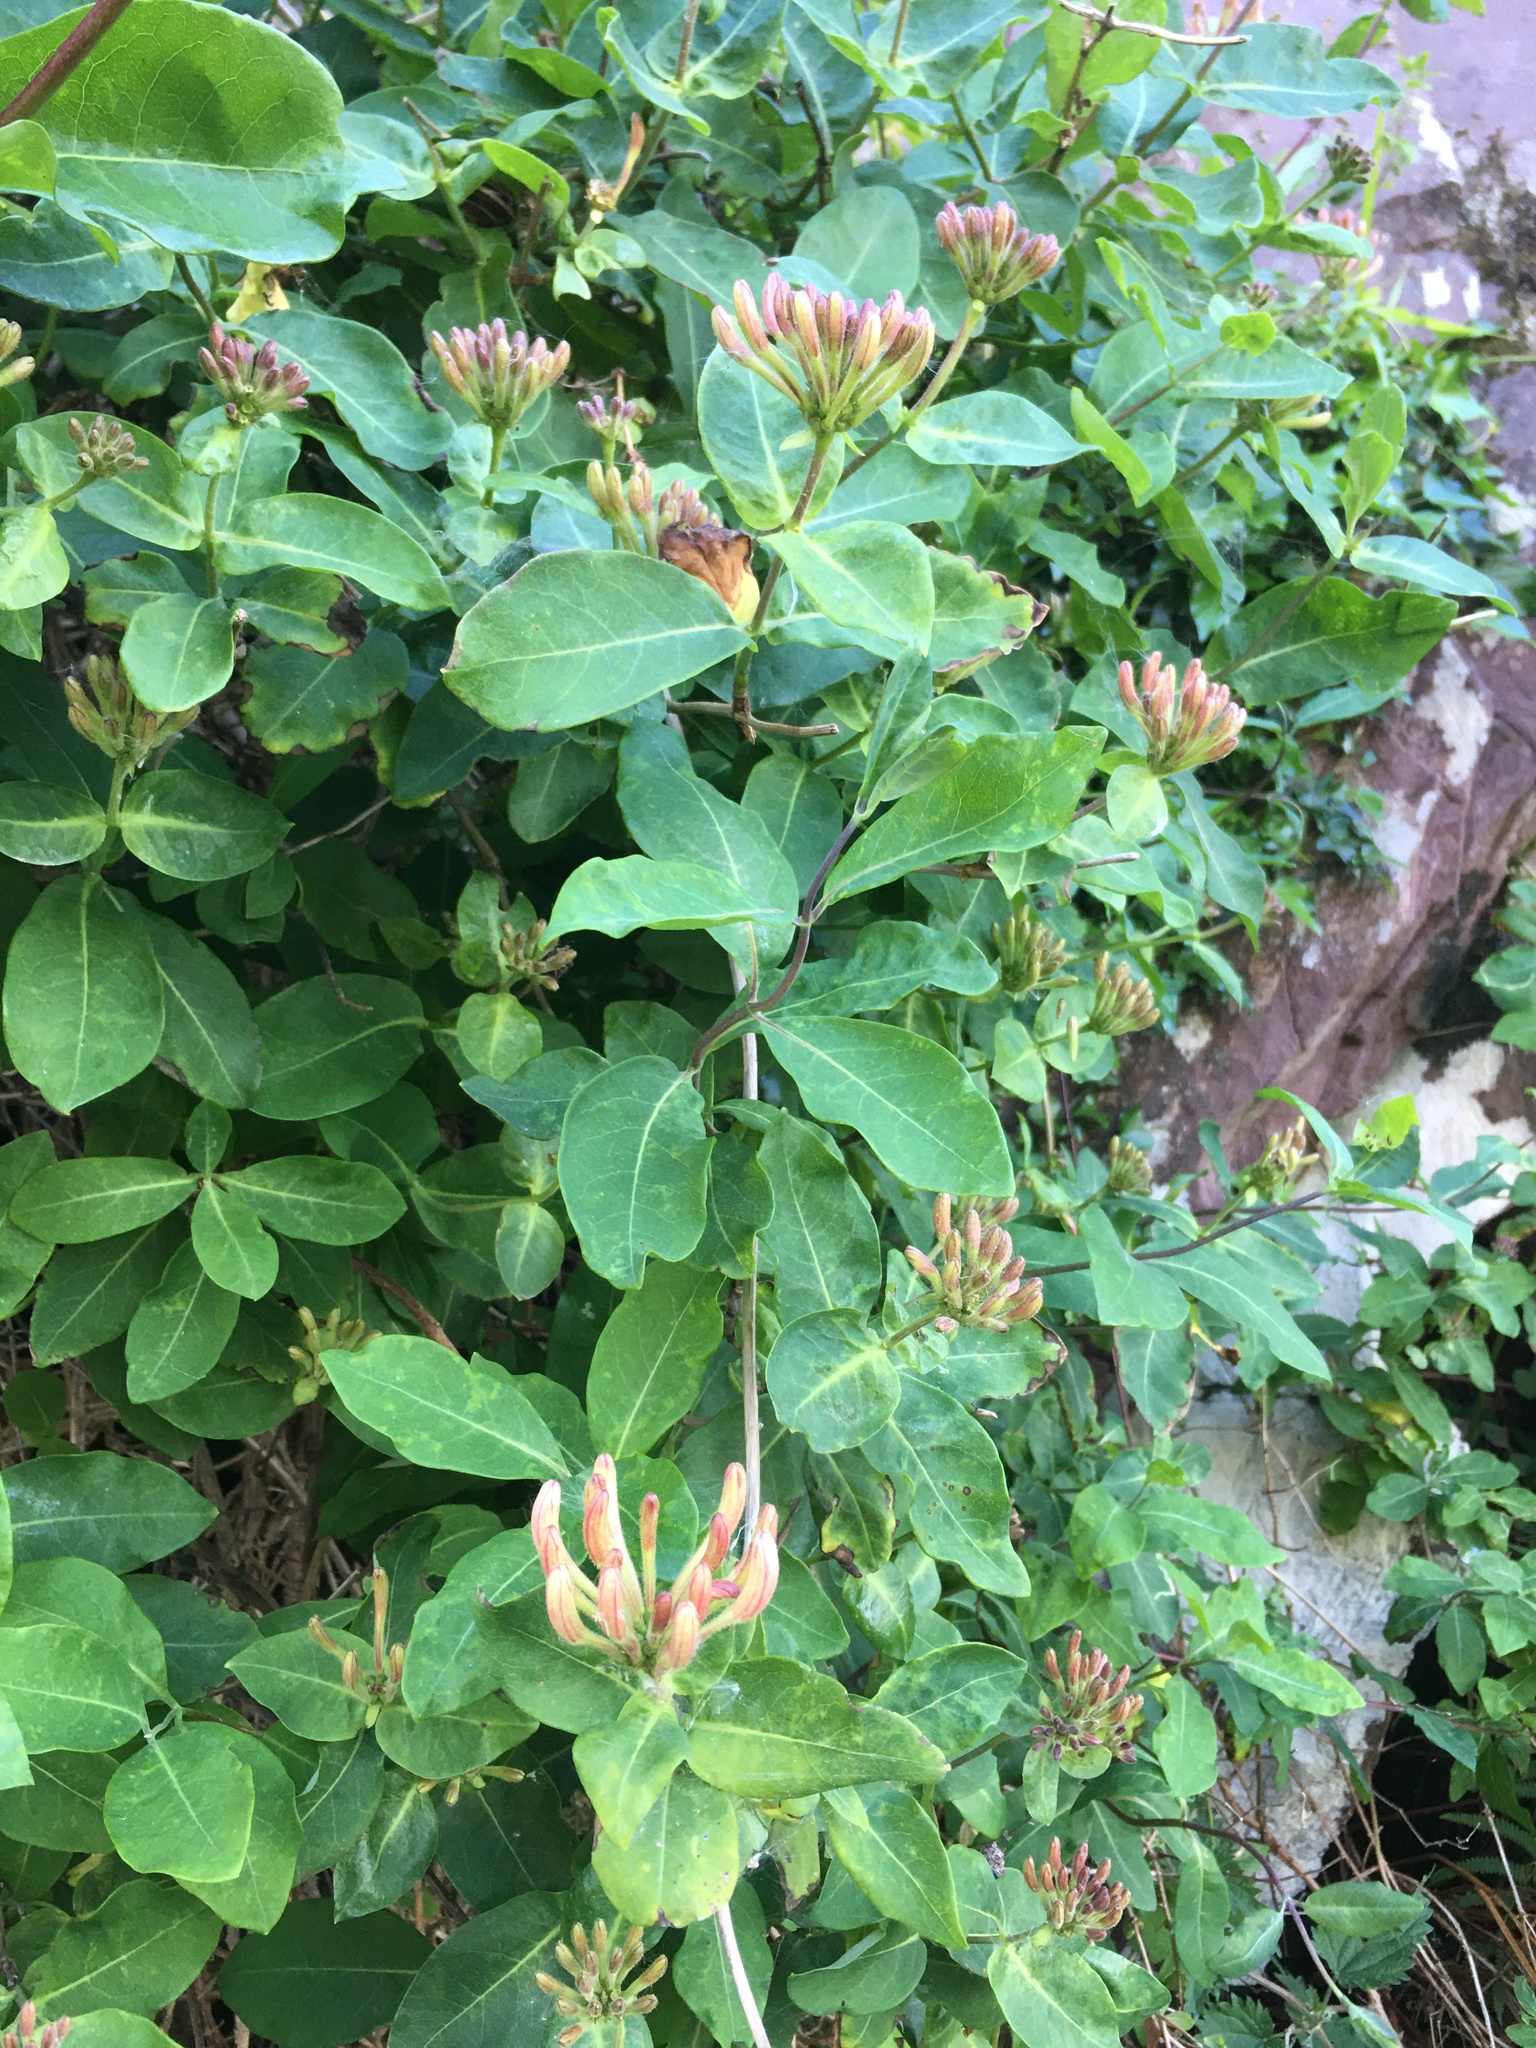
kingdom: Plantae
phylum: Tracheophyta
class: Magnoliopsida
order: Dipsacales
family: Caprifoliaceae
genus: Lonicera
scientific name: Lonicera periclymenum
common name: European honeysuckle
